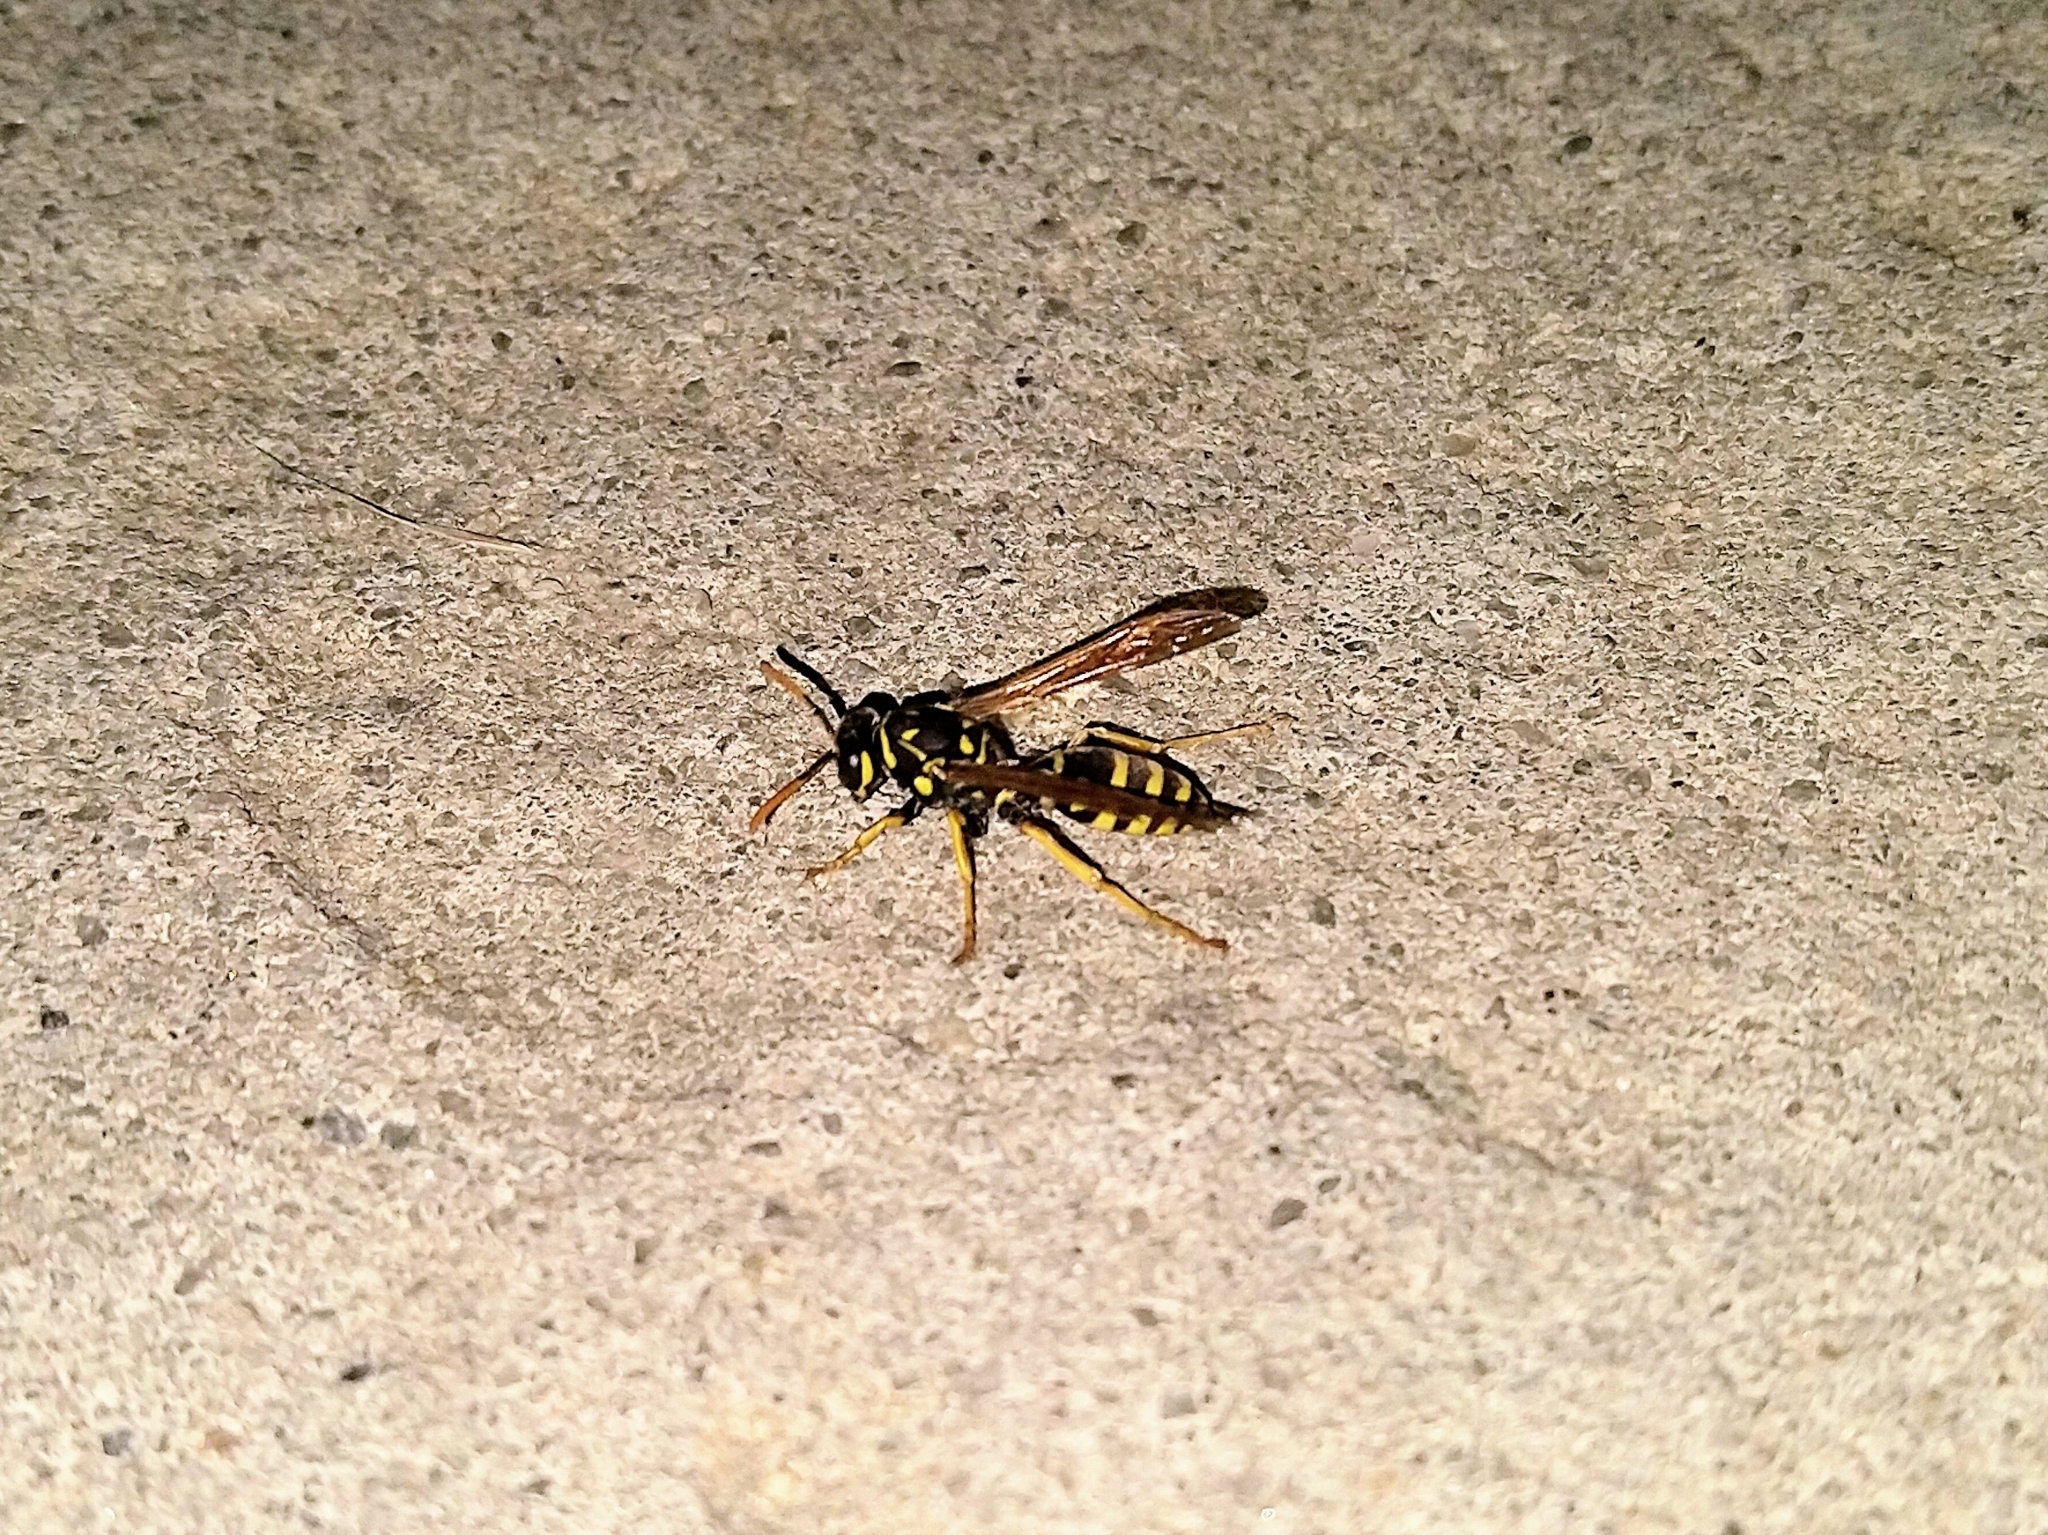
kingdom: Animalia
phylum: Arthropoda
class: Insecta
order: Hymenoptera
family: Eumenidae
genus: Polistes
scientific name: Polistes dominula
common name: Paper wasp
